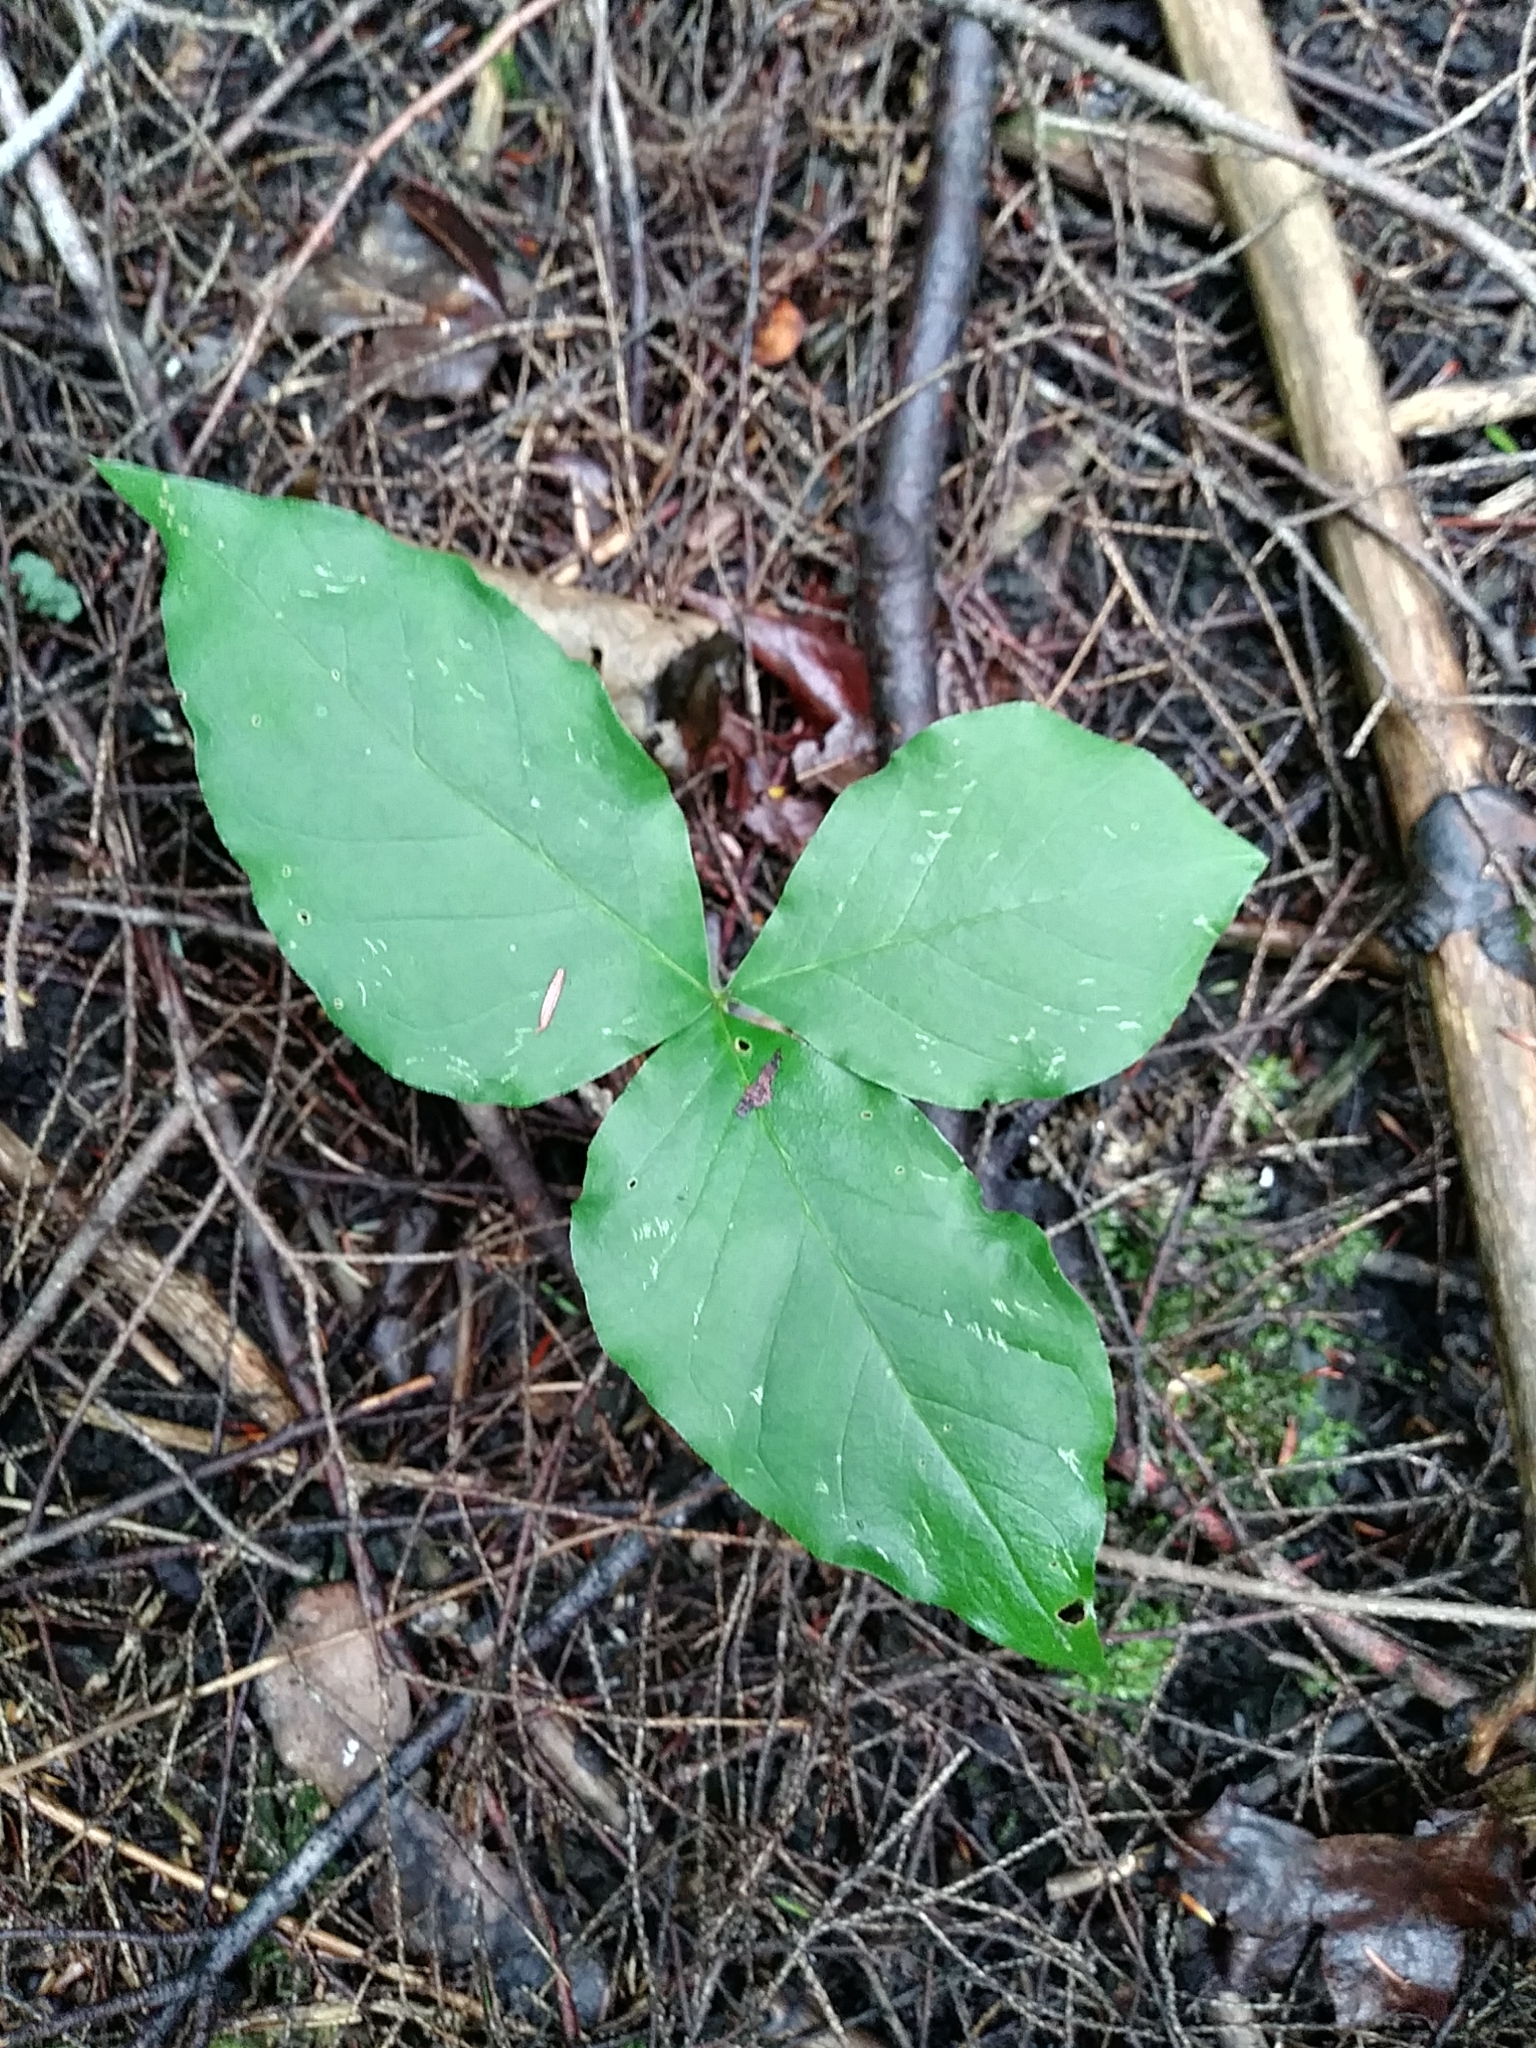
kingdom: Plantae
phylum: Tracheophyta
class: Liliopsida
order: Alismatales
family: Araceae
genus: Arisaema
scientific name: Arisaema triphyllum
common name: Jack-in-the-pulpit
